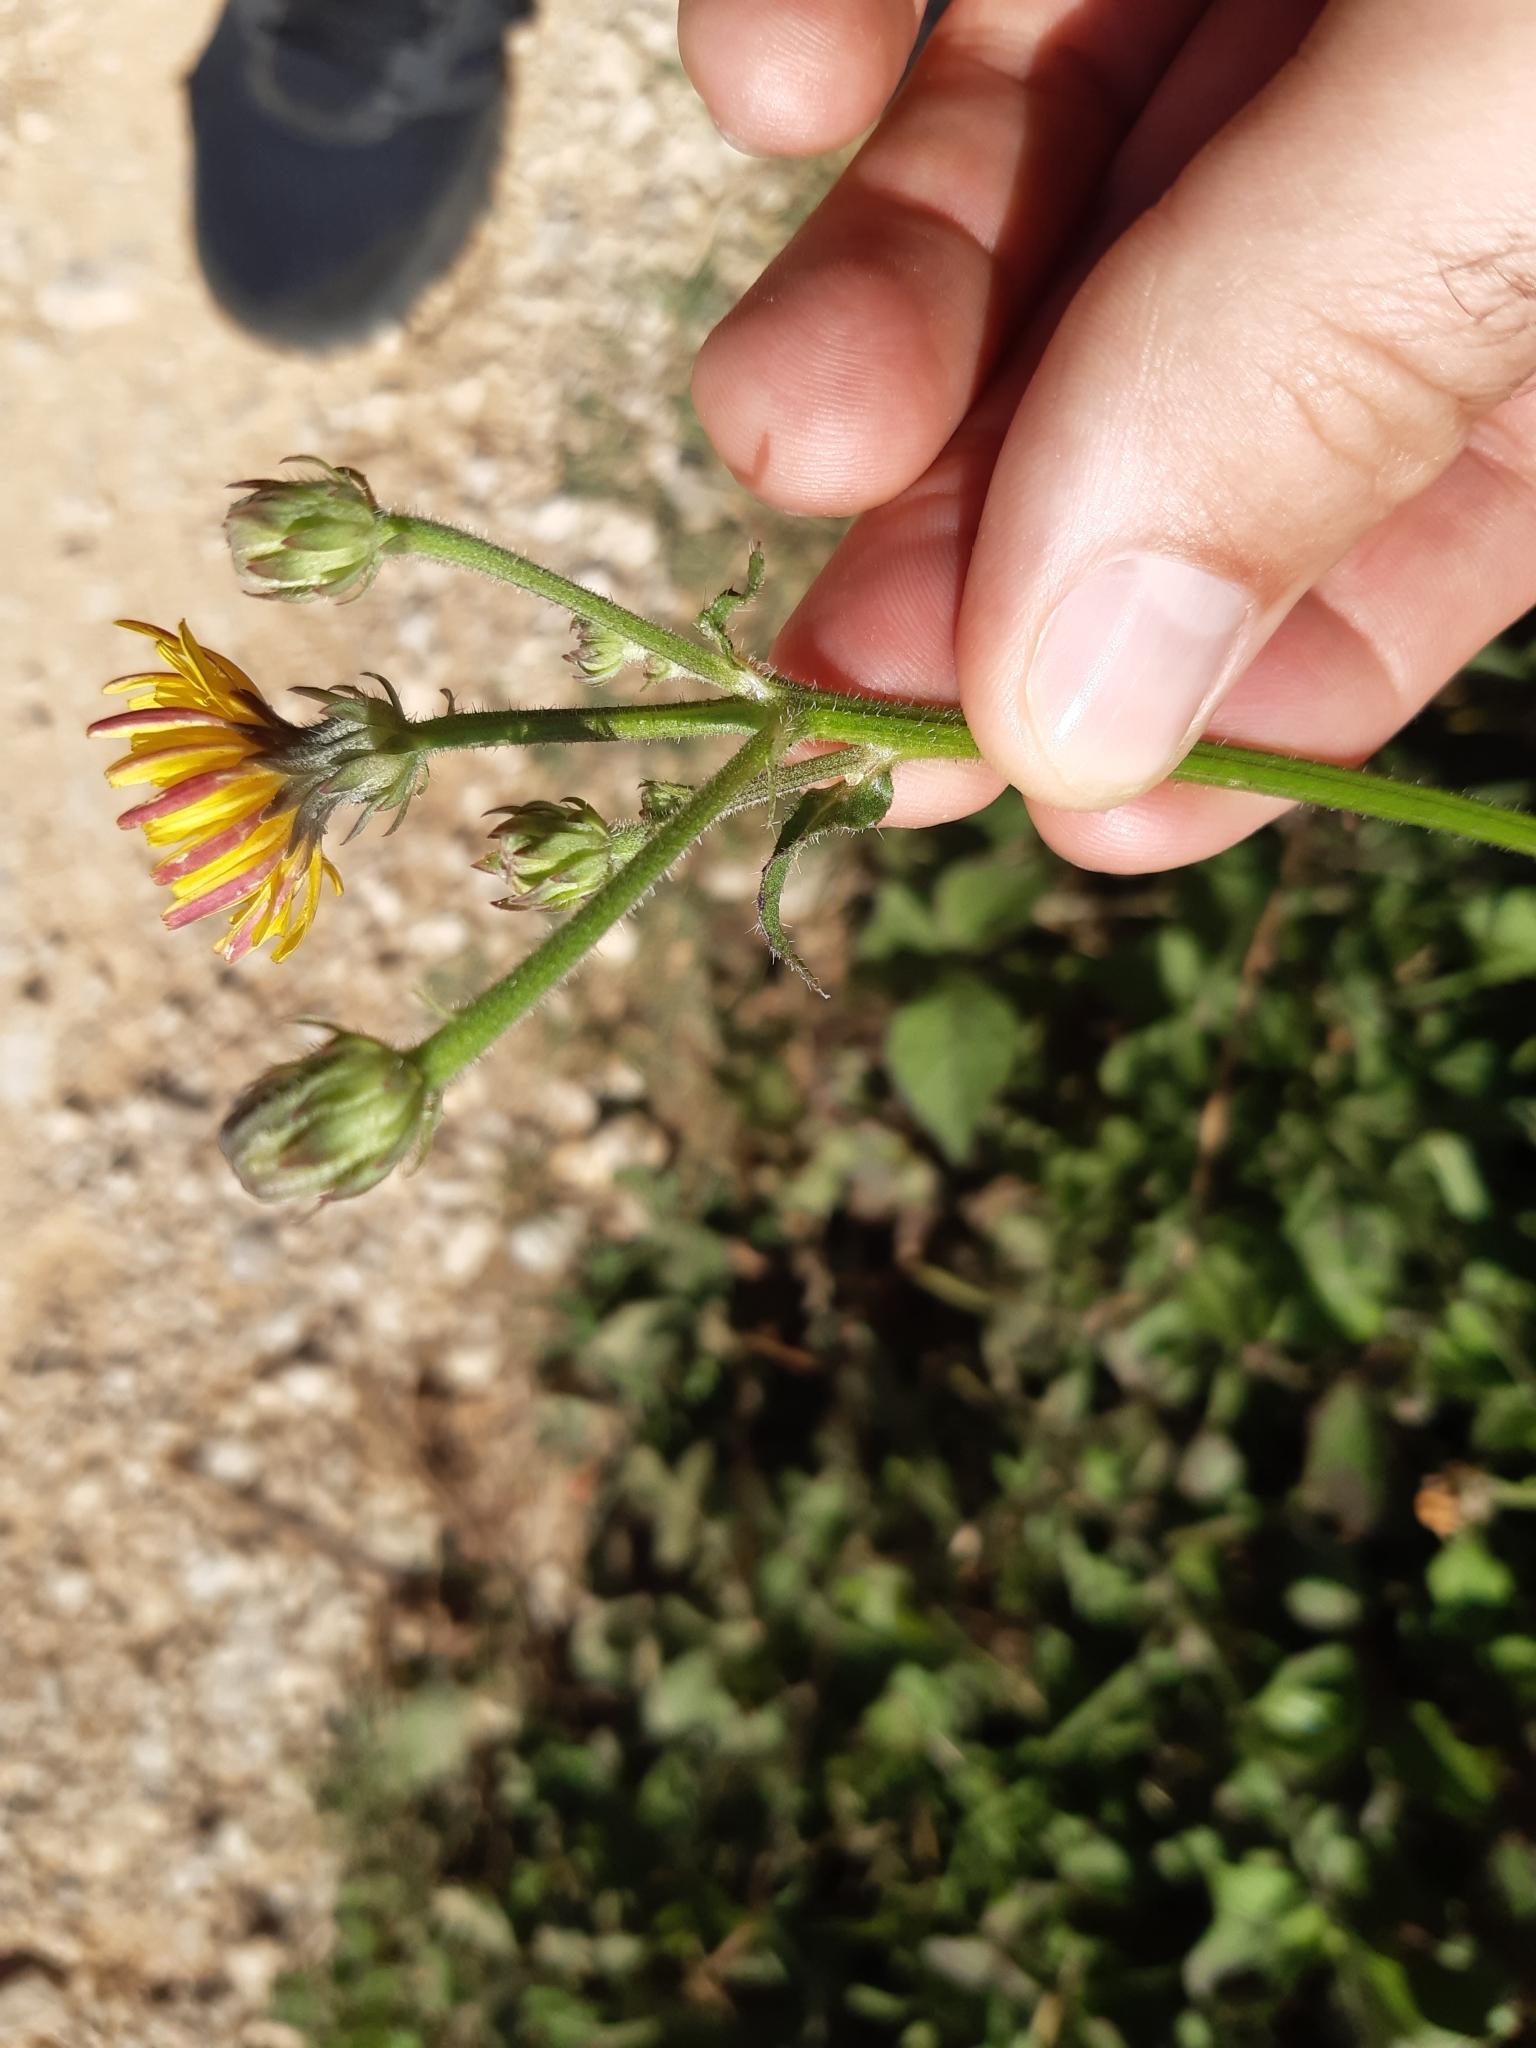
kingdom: Plantae
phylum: Tracheophyta
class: Magnoliopsida
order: Asterales
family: Asteraceae
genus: Picris
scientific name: Picris hieracioides
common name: Hawkweed oxtongue
